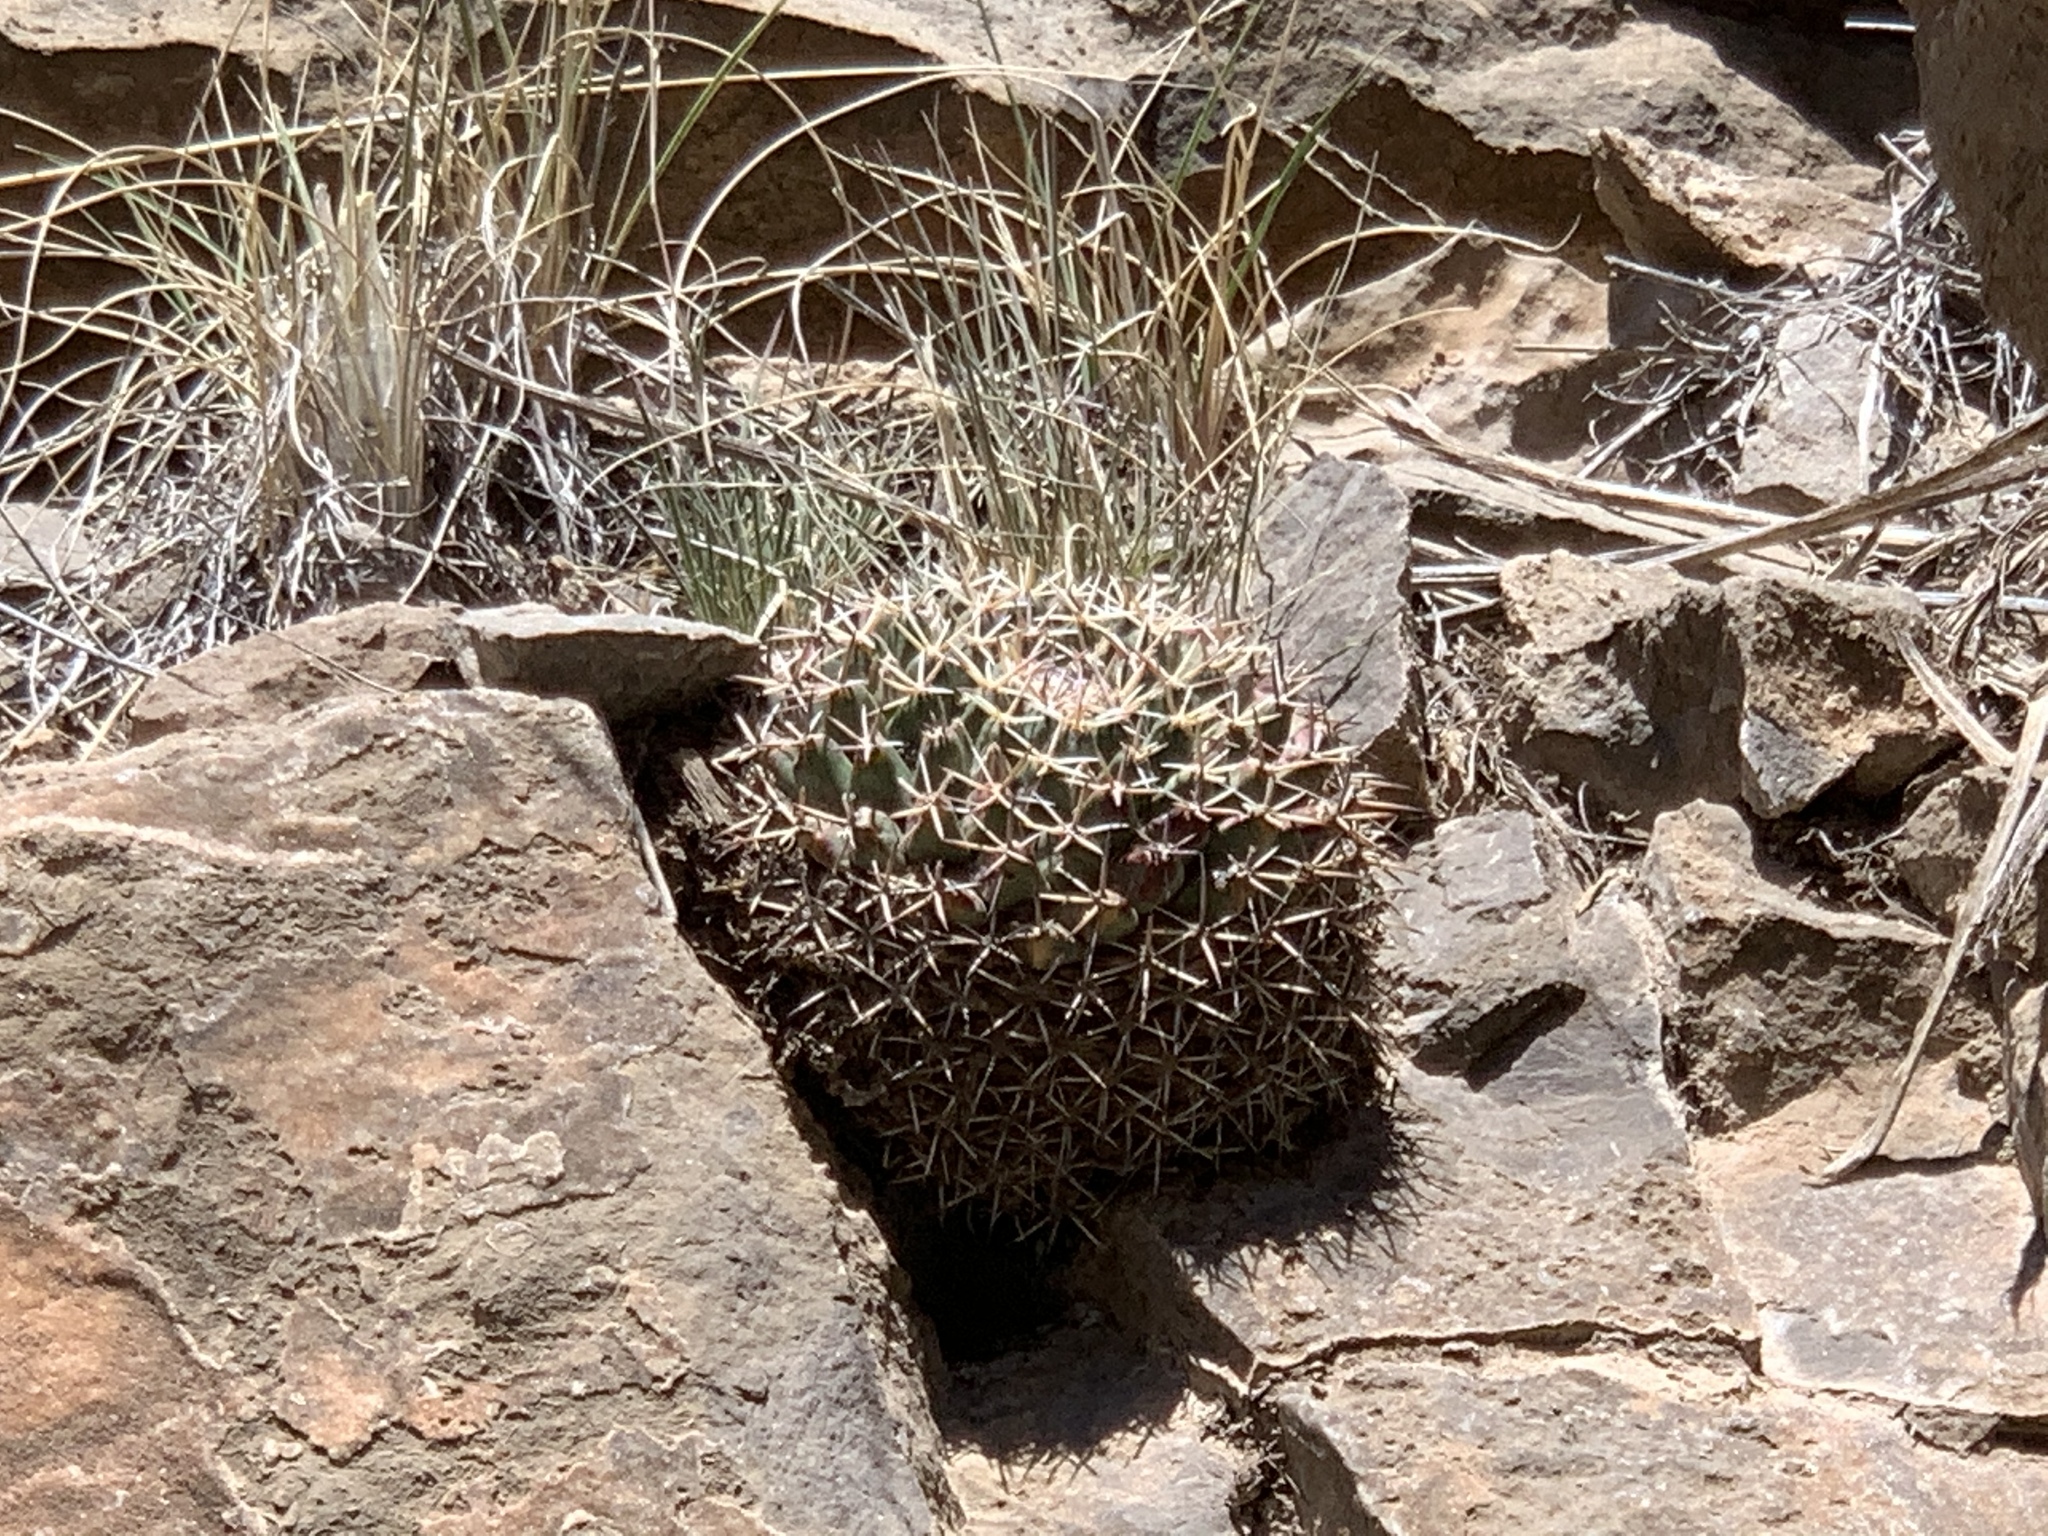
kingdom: Plantae
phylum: Tracheophyta
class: Magnoliopsida
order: Caryophyllales
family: Cactaceae
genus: Mammillaria
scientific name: Mammillaria heyderi
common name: Little nipple cactus
